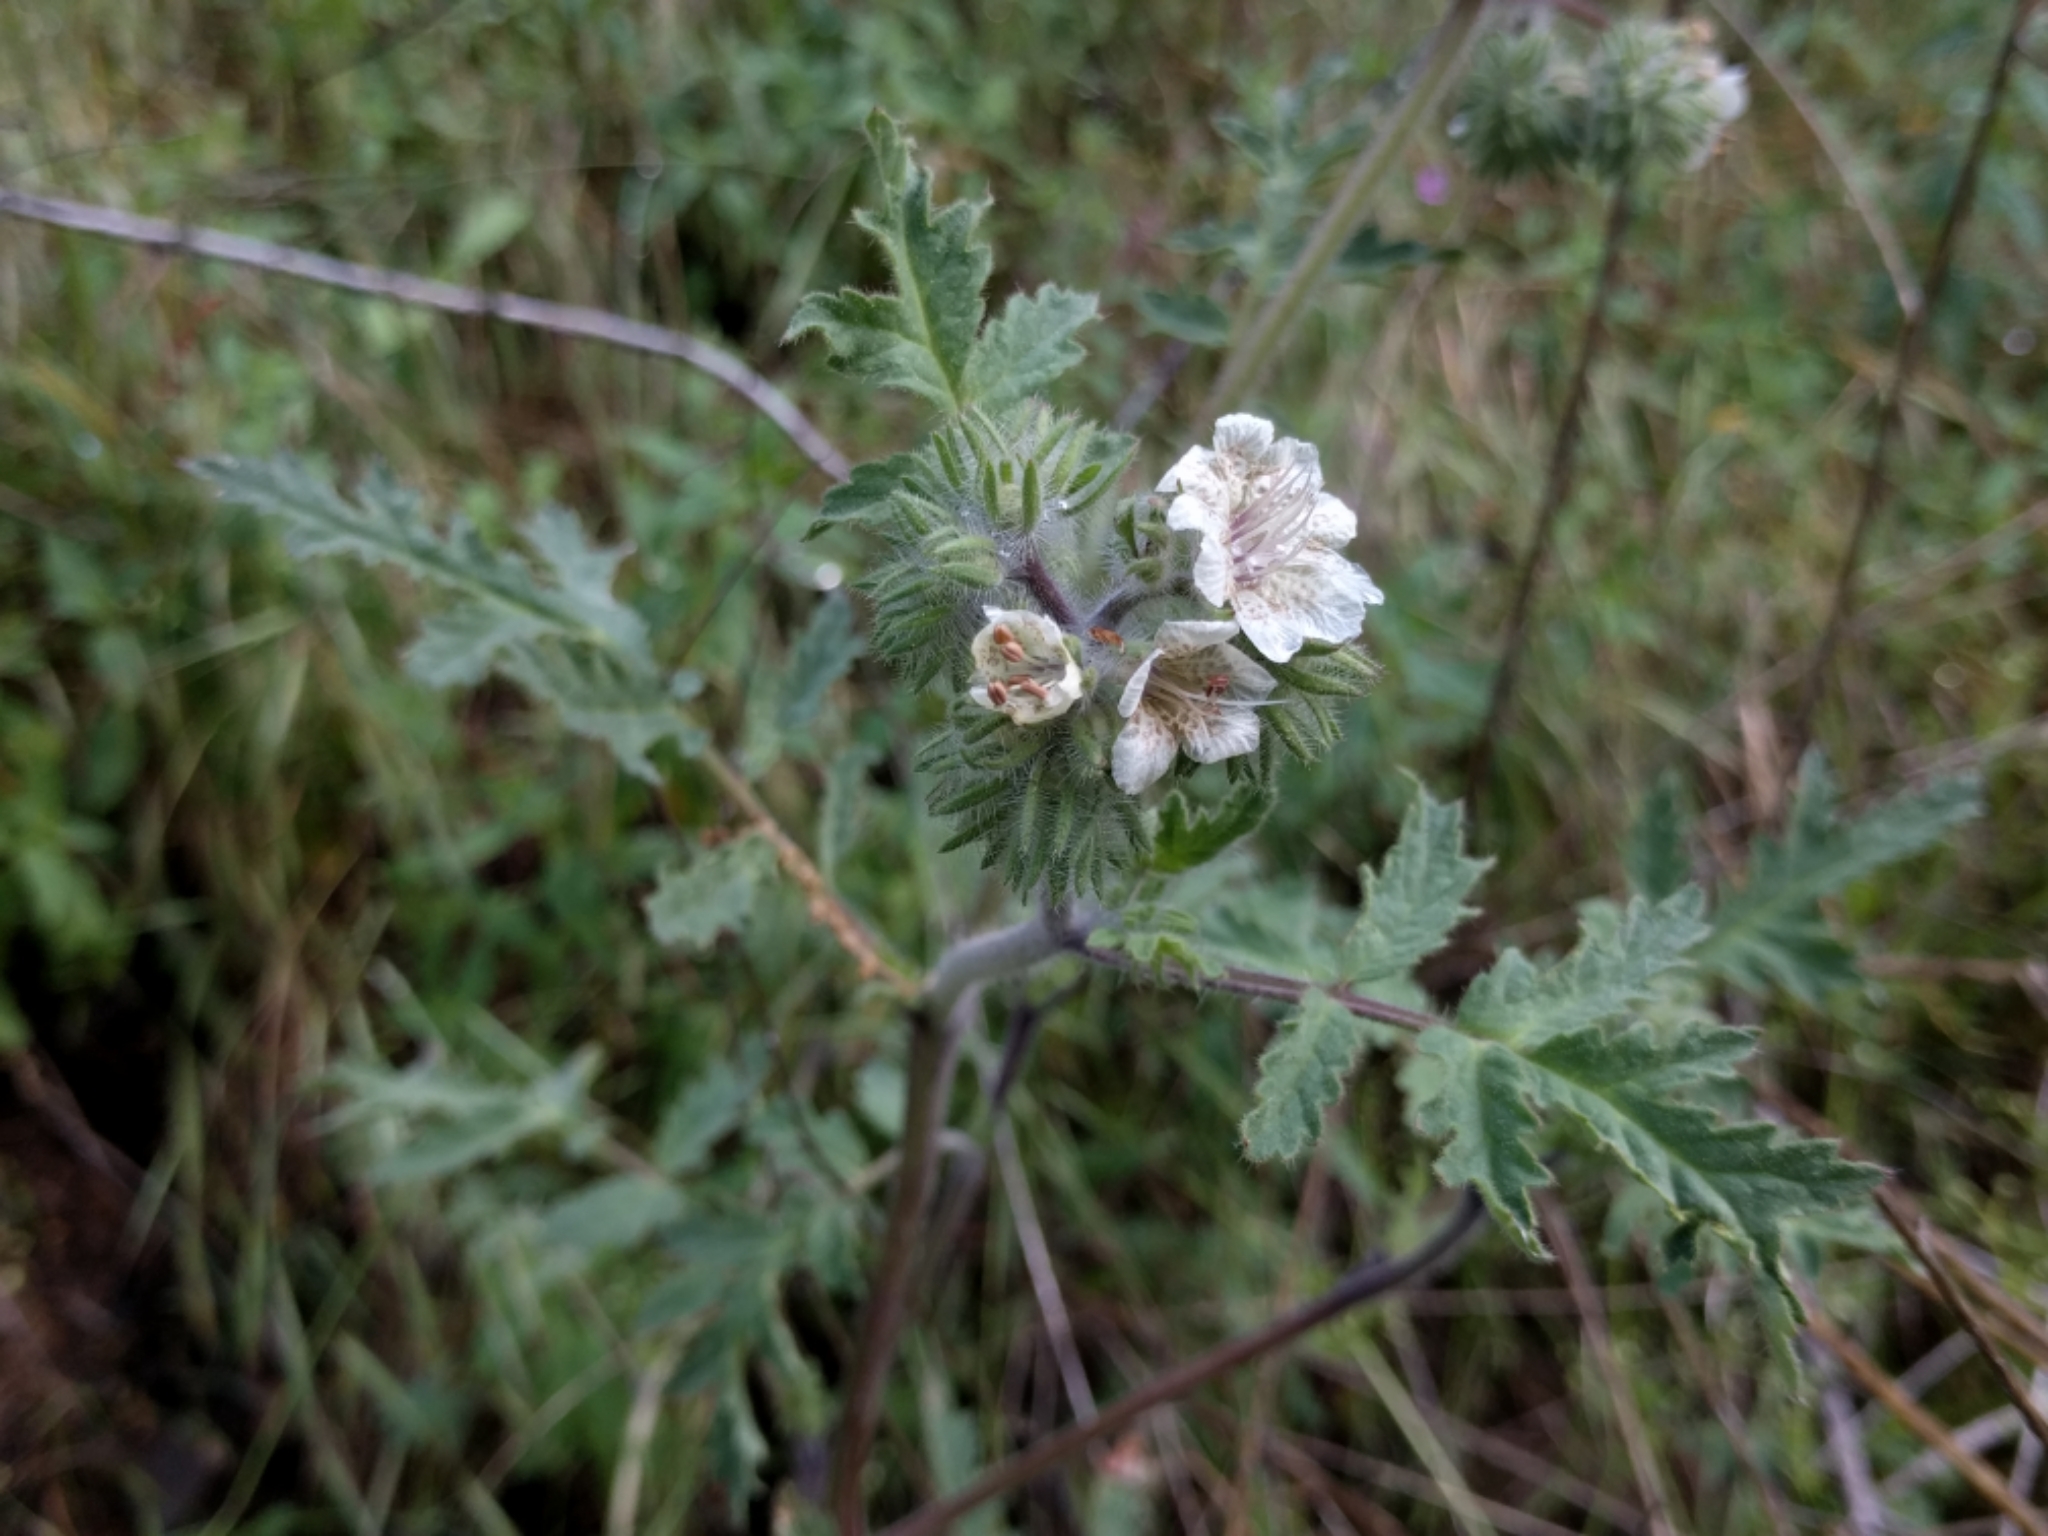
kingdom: Plantae
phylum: Tracheophyta
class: Magnoliopsida
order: Boraginales
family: Hydrophyllaceae
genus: Phacelia
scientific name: Phacelia cicutaria
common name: Caterpillar phacelia
